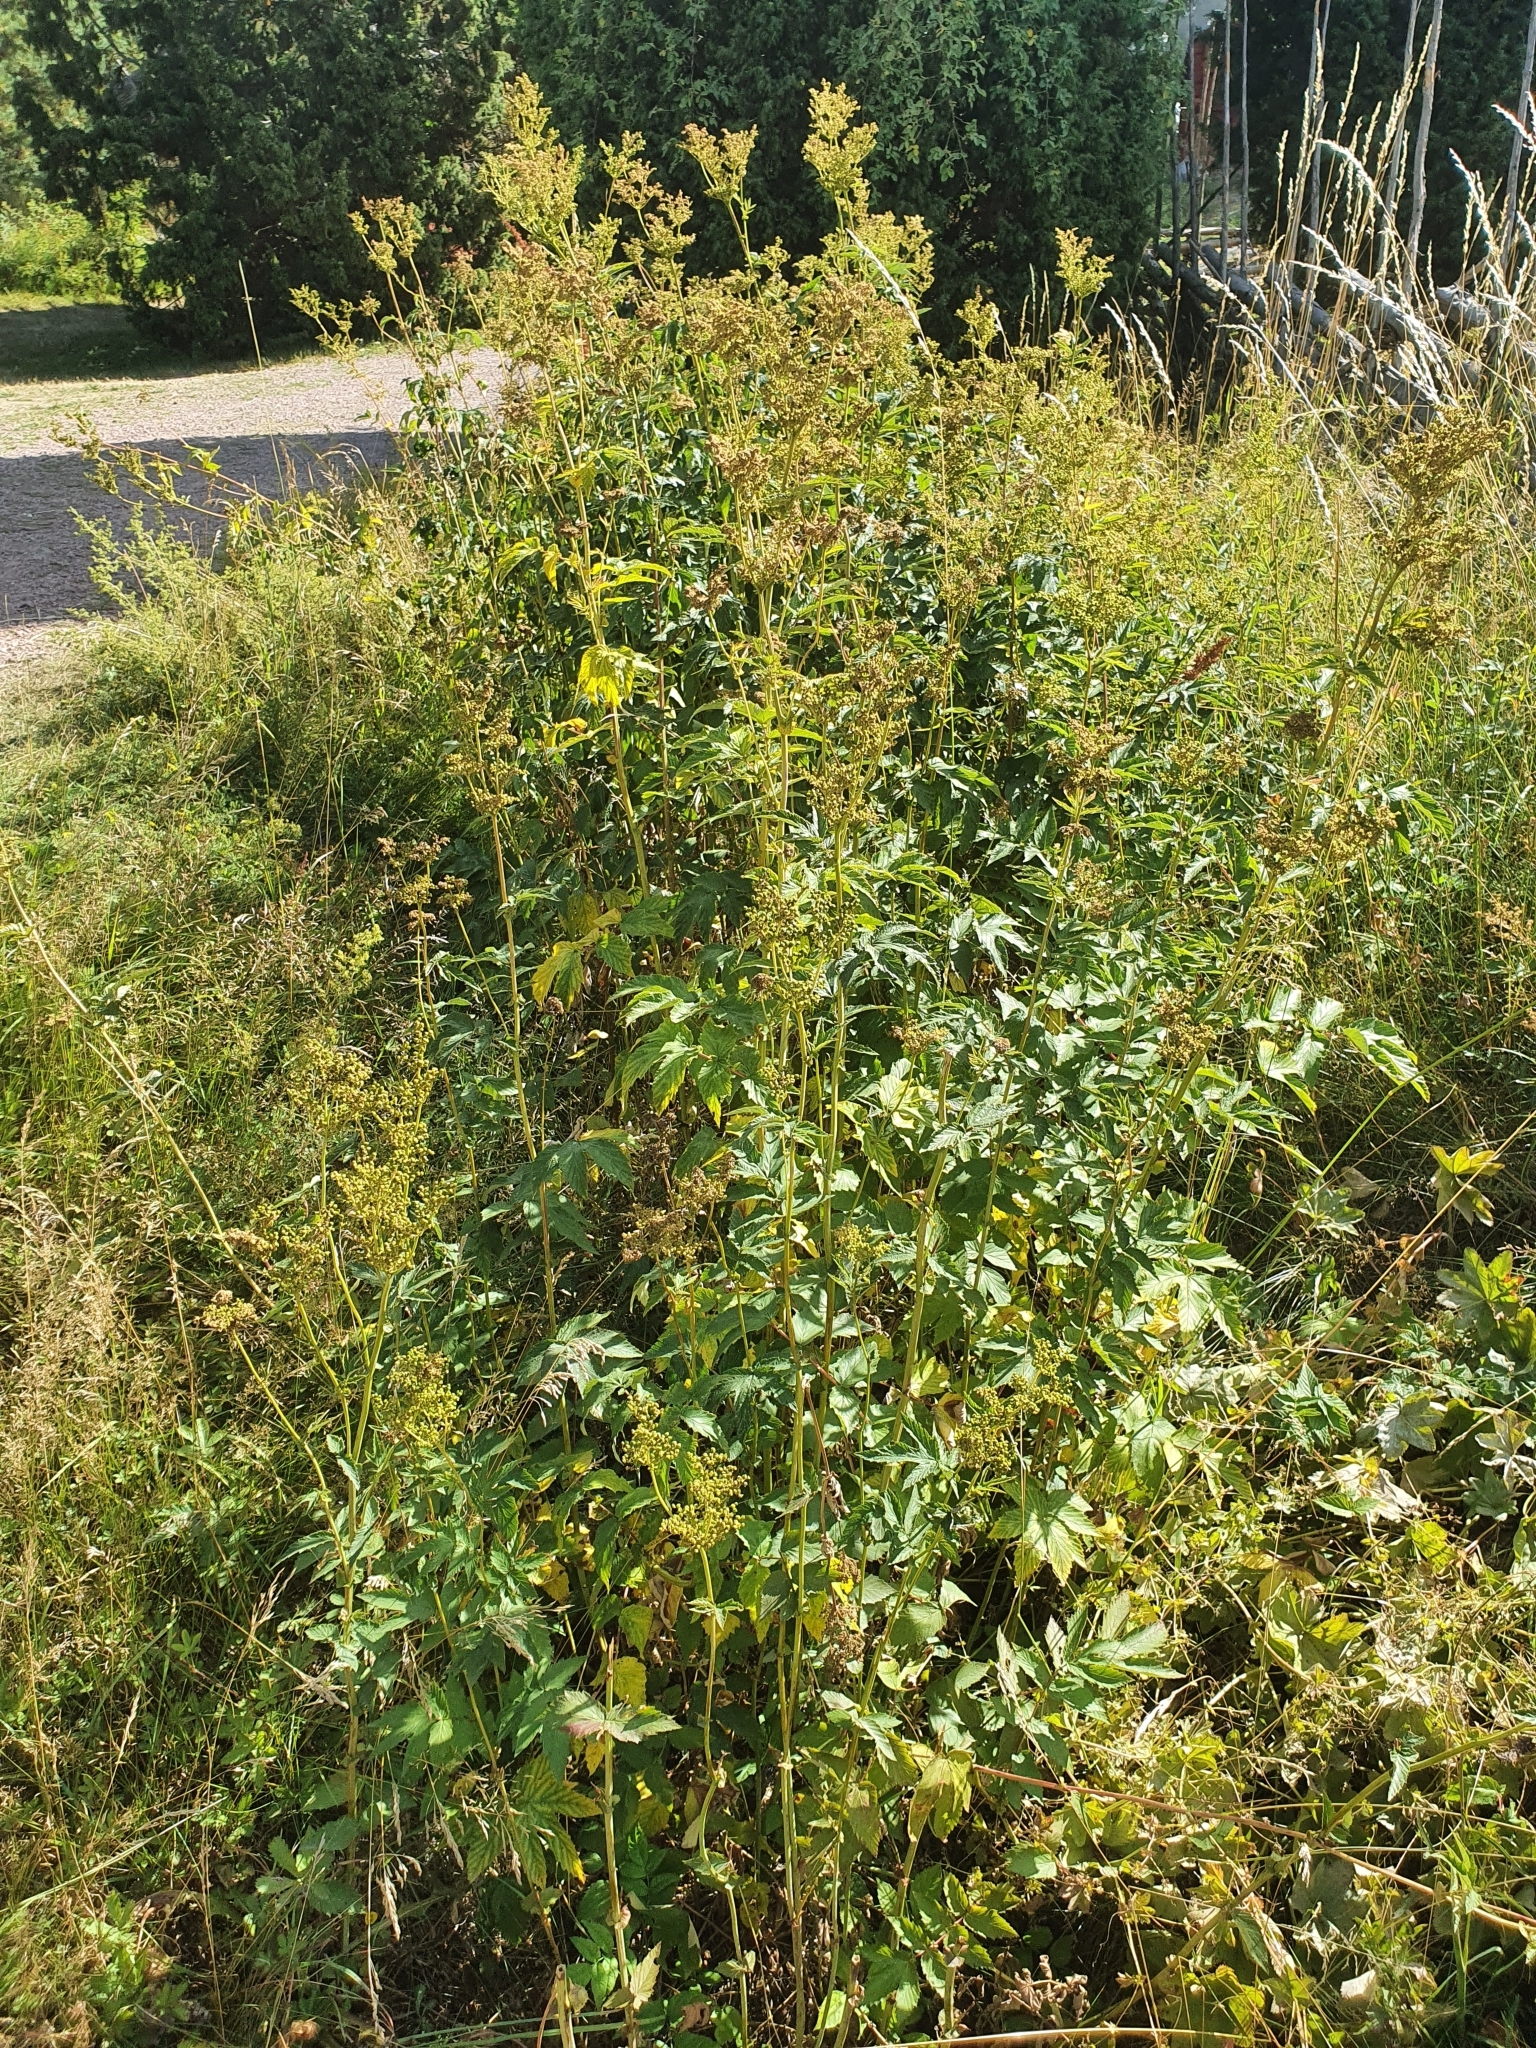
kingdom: Plantae
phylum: Tracheophyta
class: Magnoliopsida
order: Rosales
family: Rosaceae
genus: Filipendula
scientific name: Filipendula ulmaria
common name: Meadowsweet
